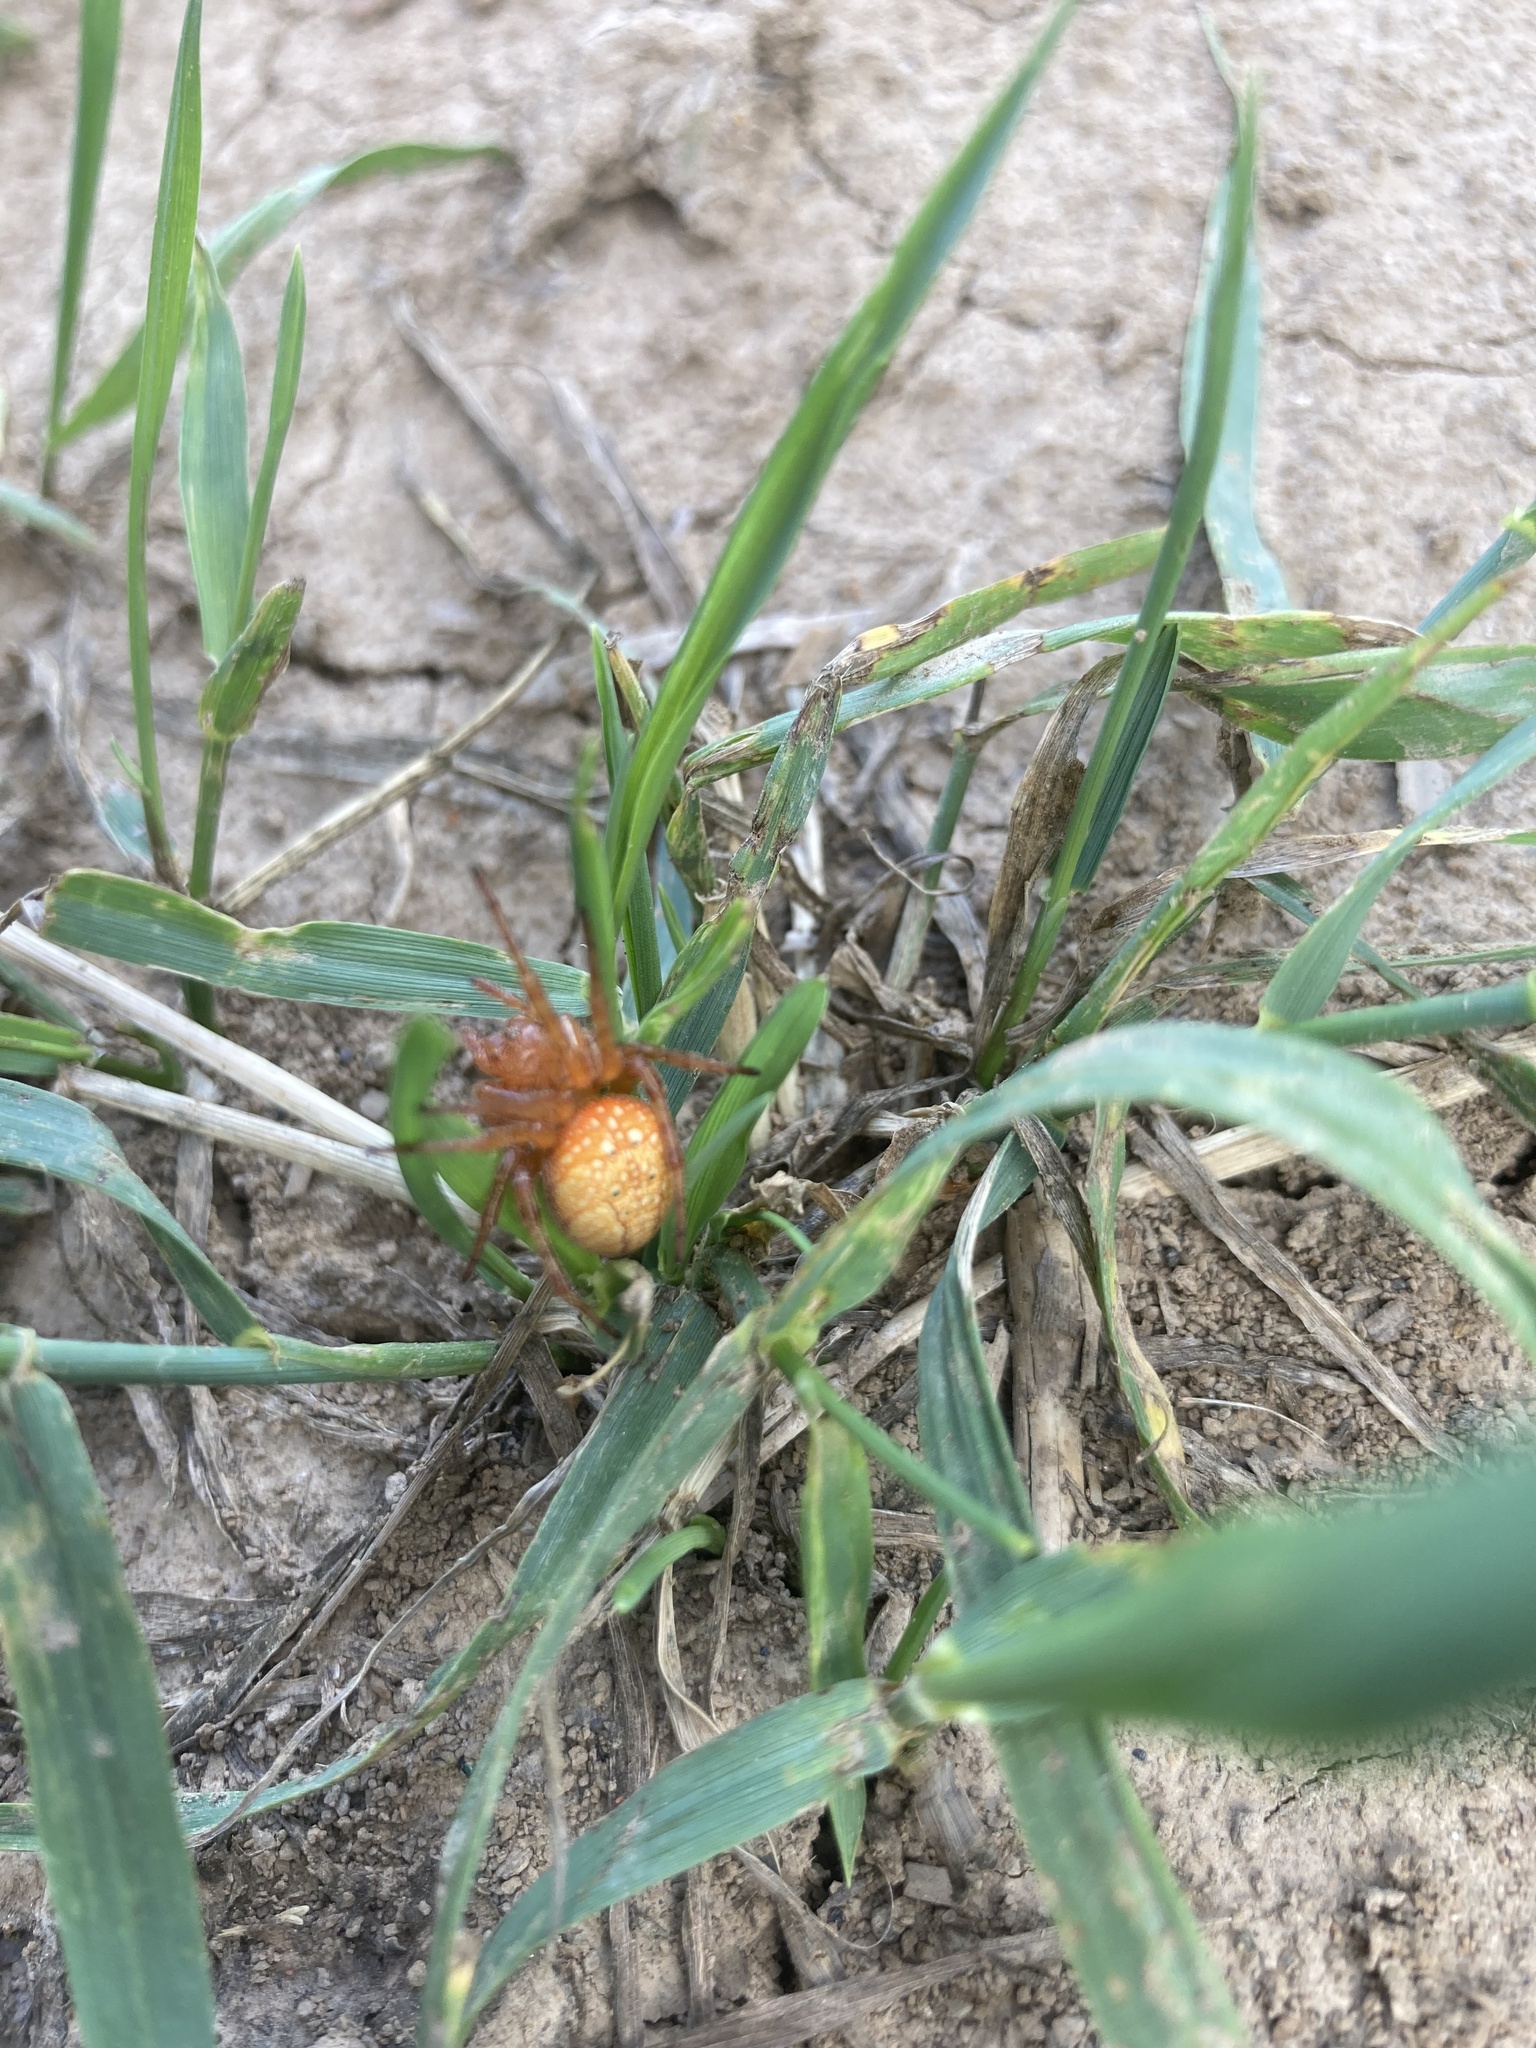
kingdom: Animalia
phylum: Arthropoda
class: Arachnida
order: Araneae
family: Araneidae
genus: Araneus
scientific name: Araneus alsine
